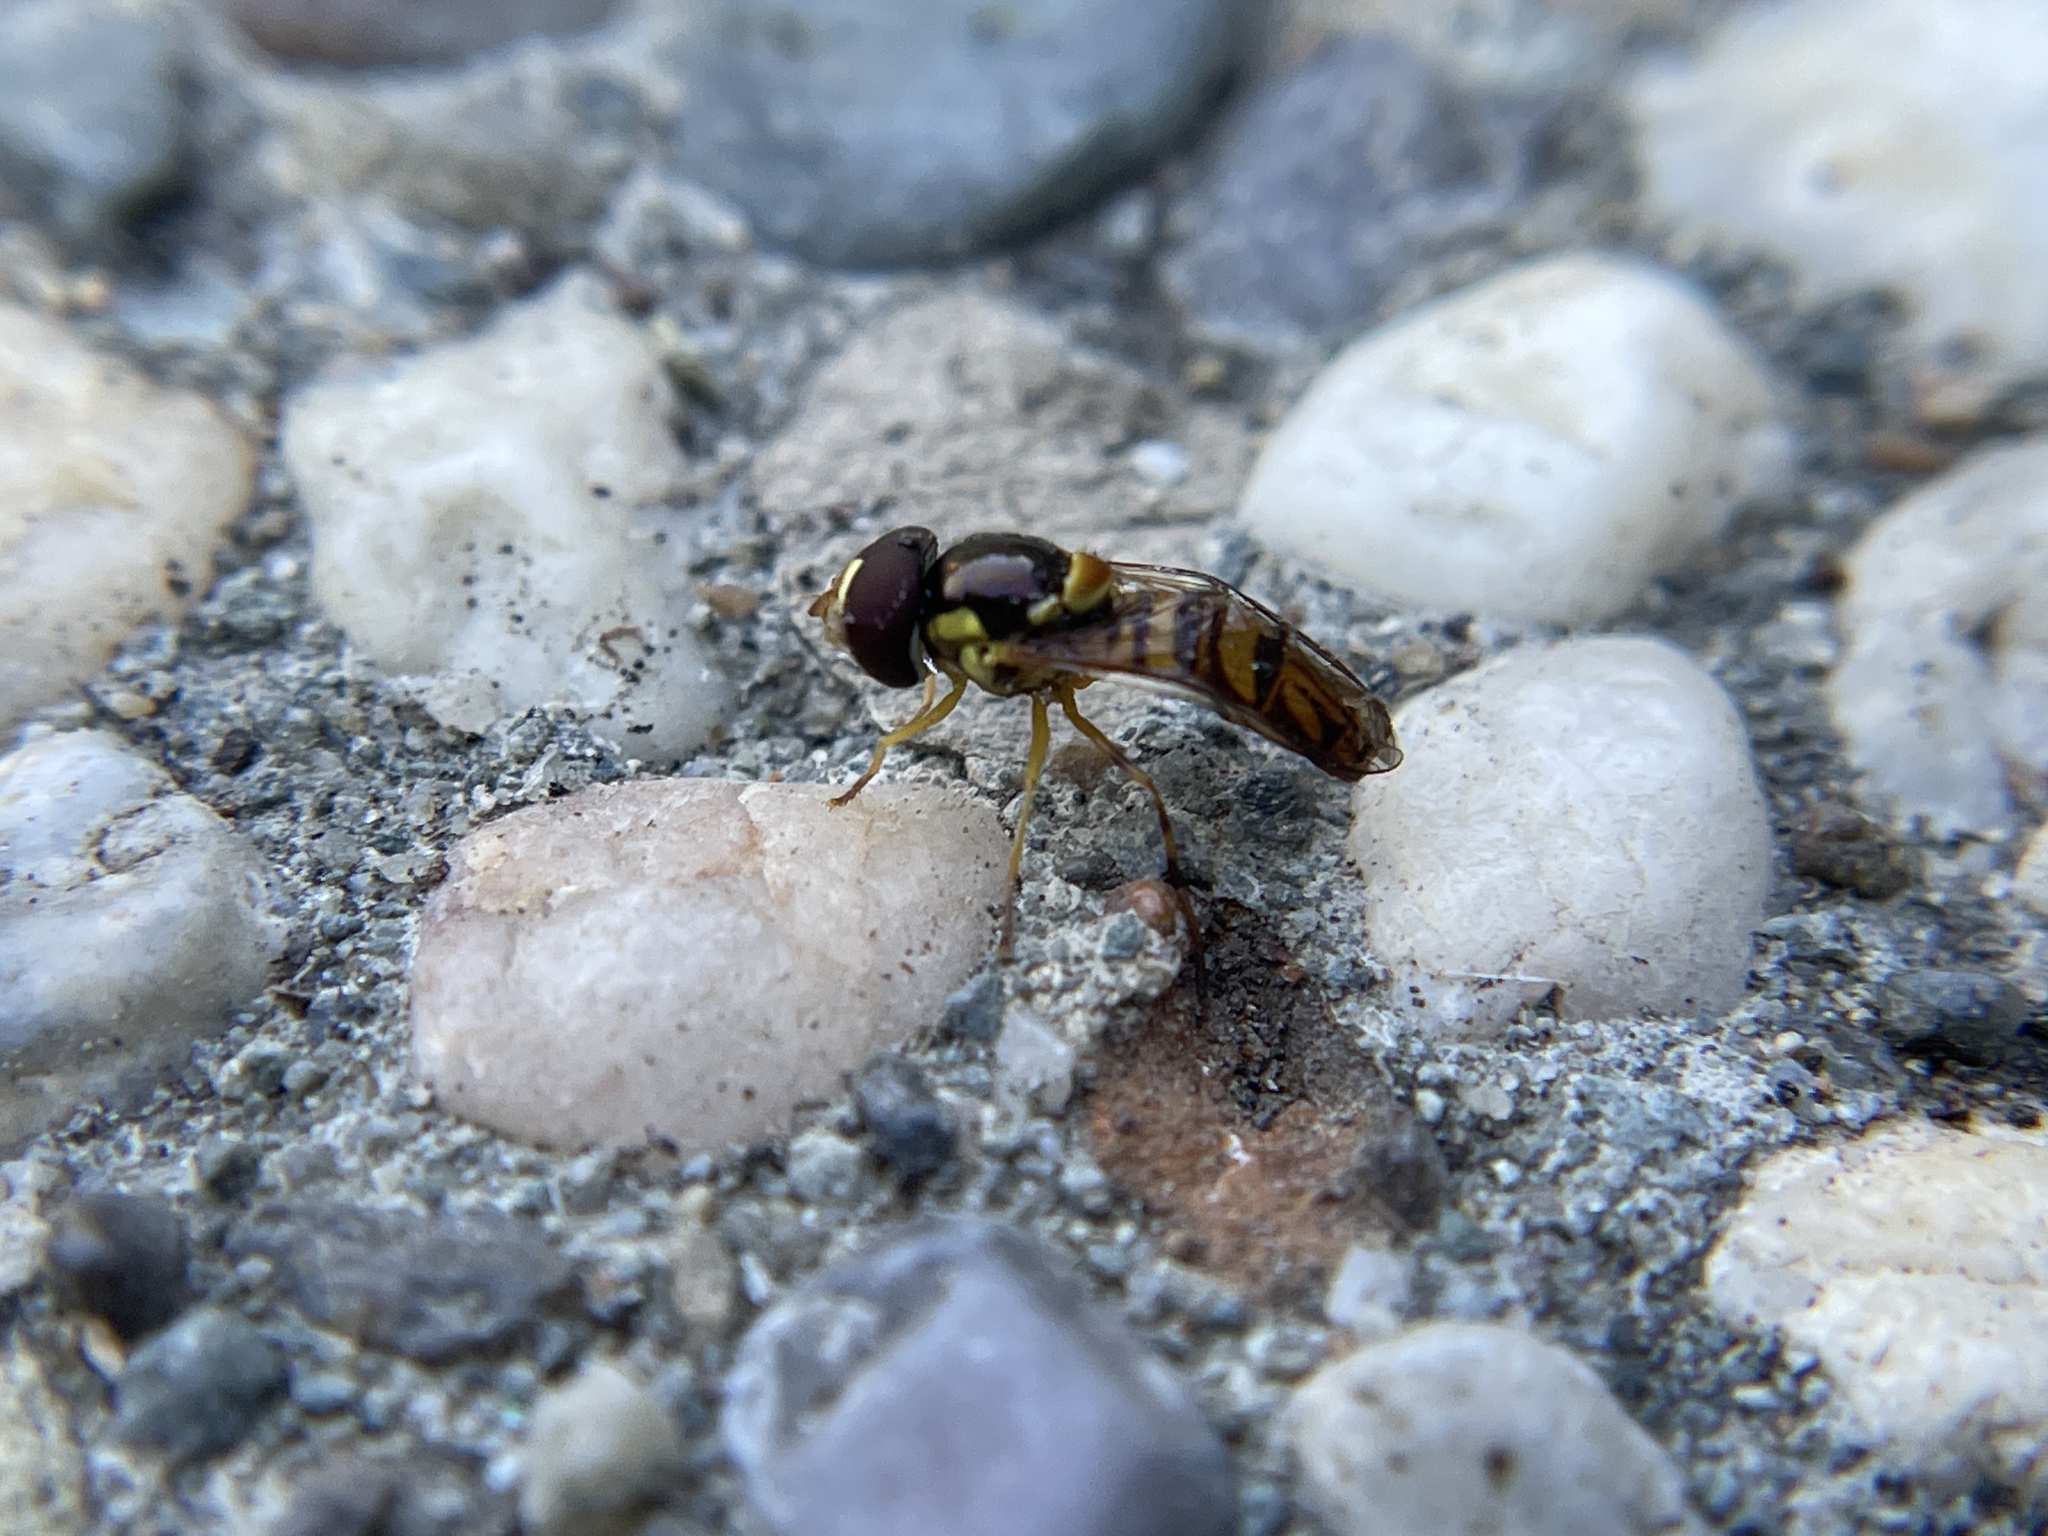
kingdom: Animalia
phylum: Arthropoda
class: Insecta
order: Diptera
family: Syrphidae
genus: Allograpta
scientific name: Allograpta obliqua
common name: Common oblique syrphid
